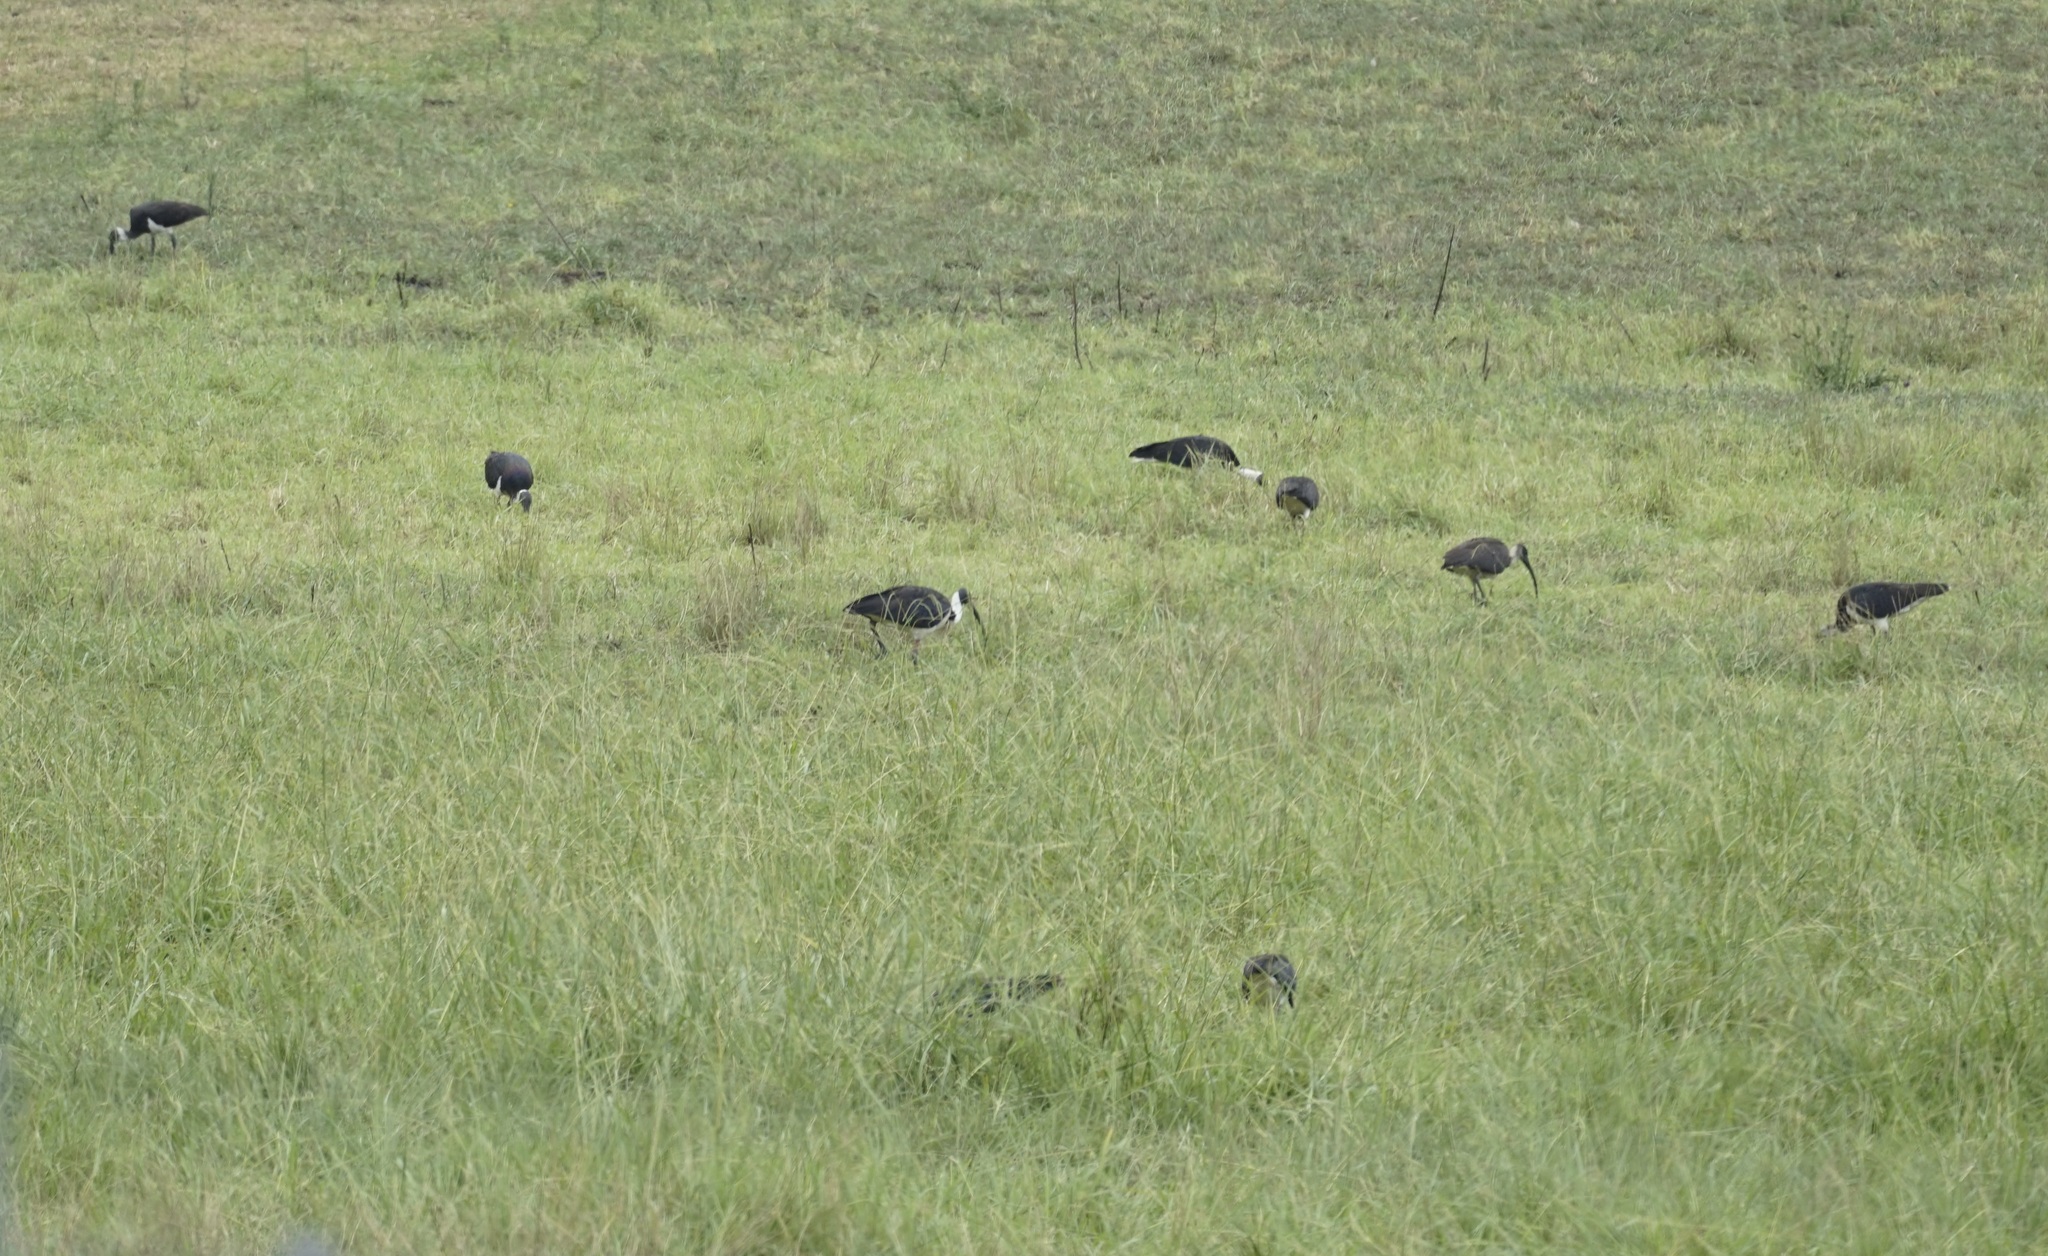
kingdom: Animalia
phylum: Chordata
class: Aves
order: Pelecaniformes
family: Threskiornithidae
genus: Threskiornis
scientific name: Threskiornis spinicollis
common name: Straw-necked ibis
